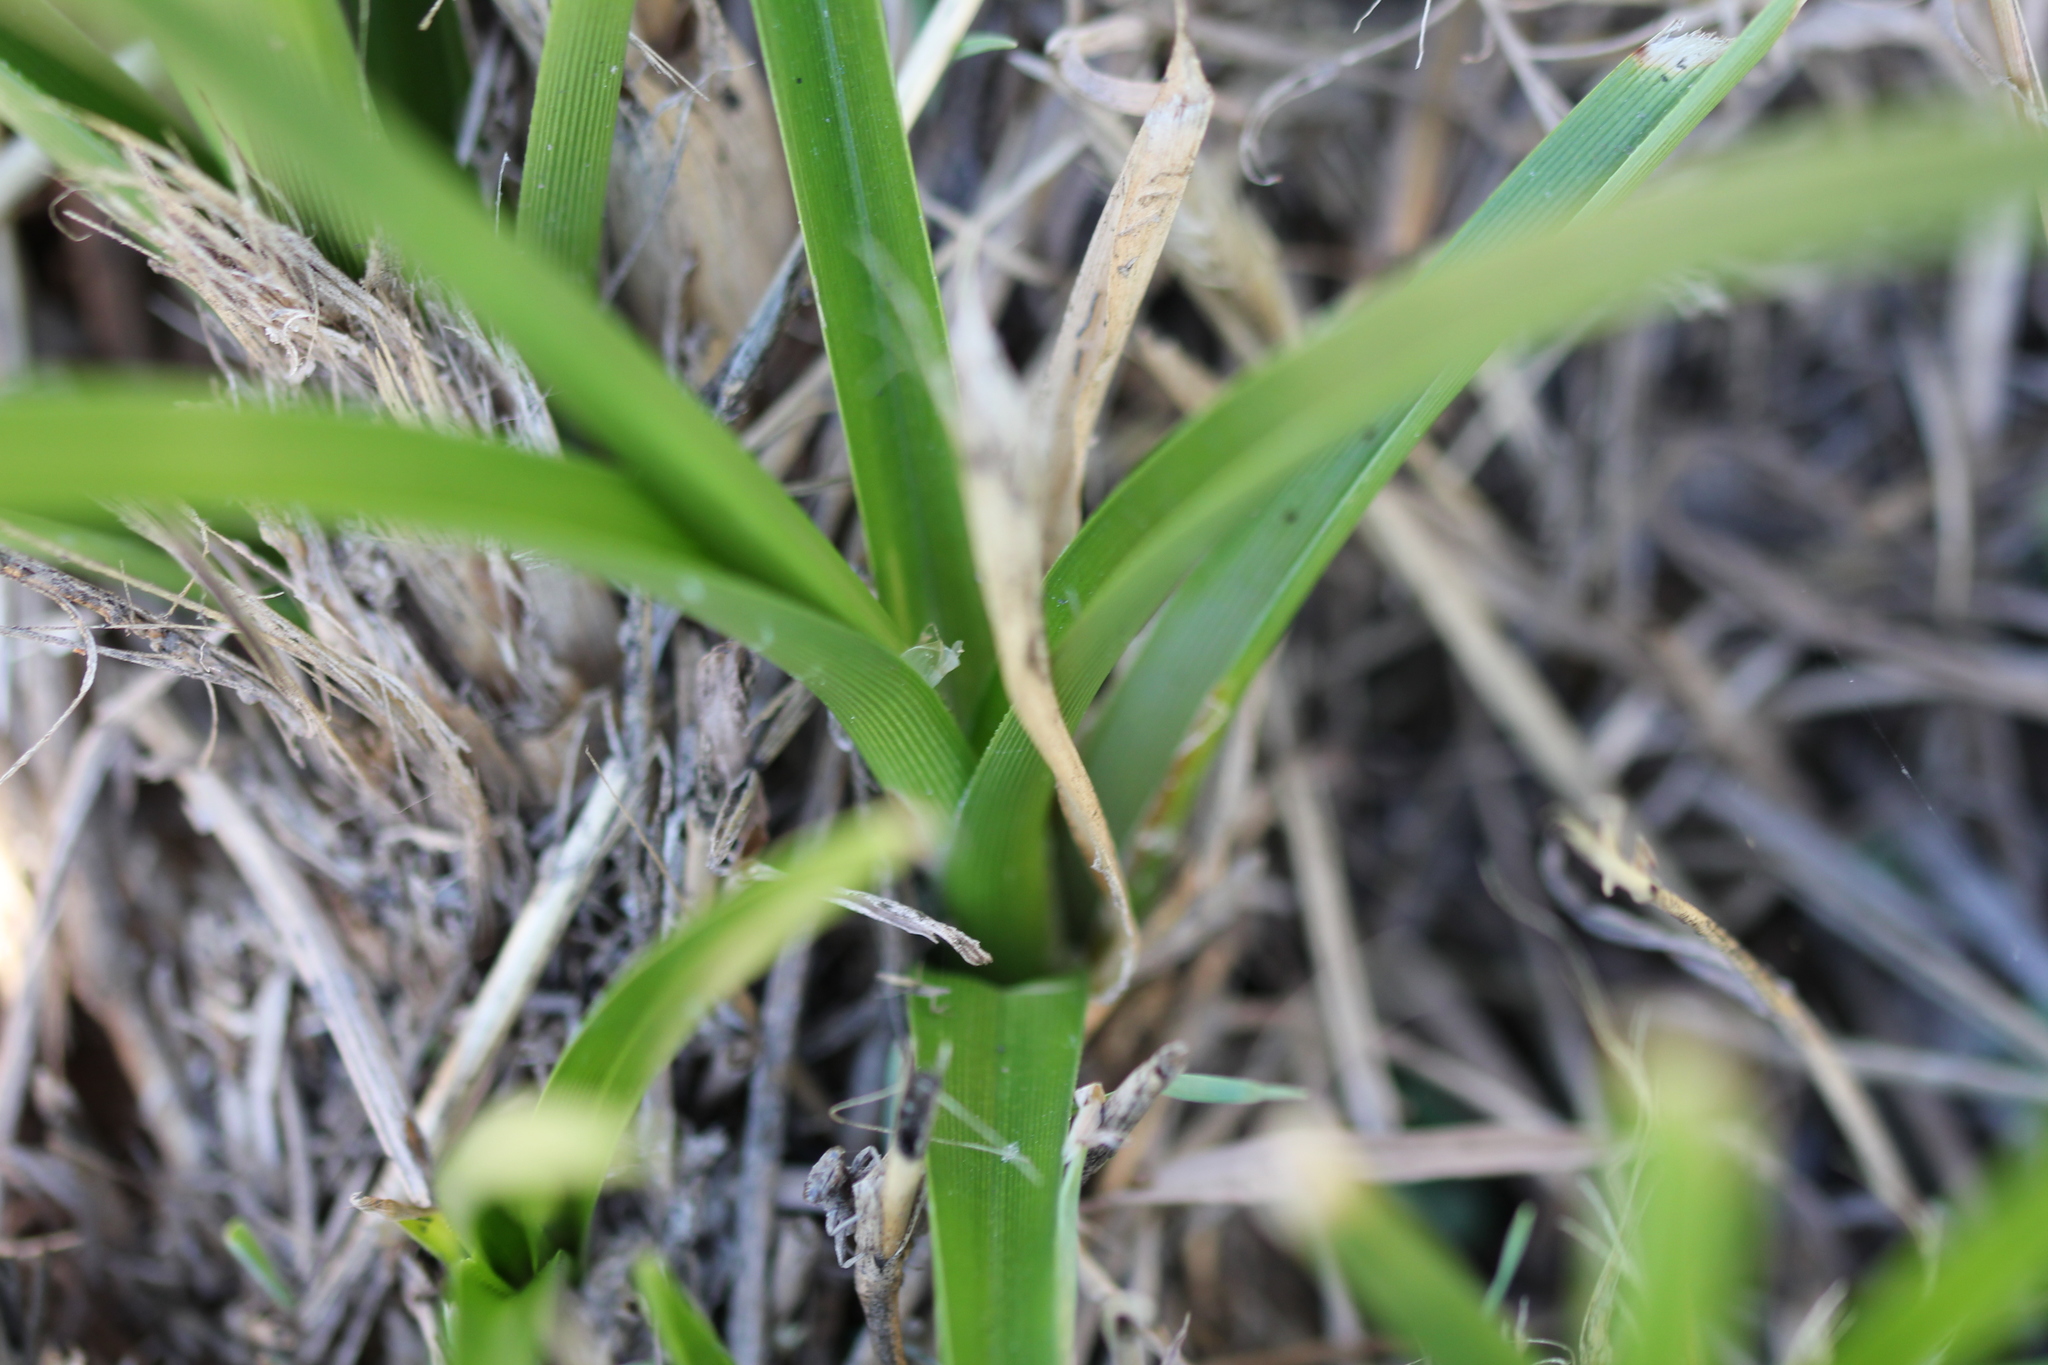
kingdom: Plantae
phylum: Tracheophyta
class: Liliopsida
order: Poales
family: Cyperaceae
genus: Cyperus
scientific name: Cyperus eragrostis
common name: Tall flatsedge
